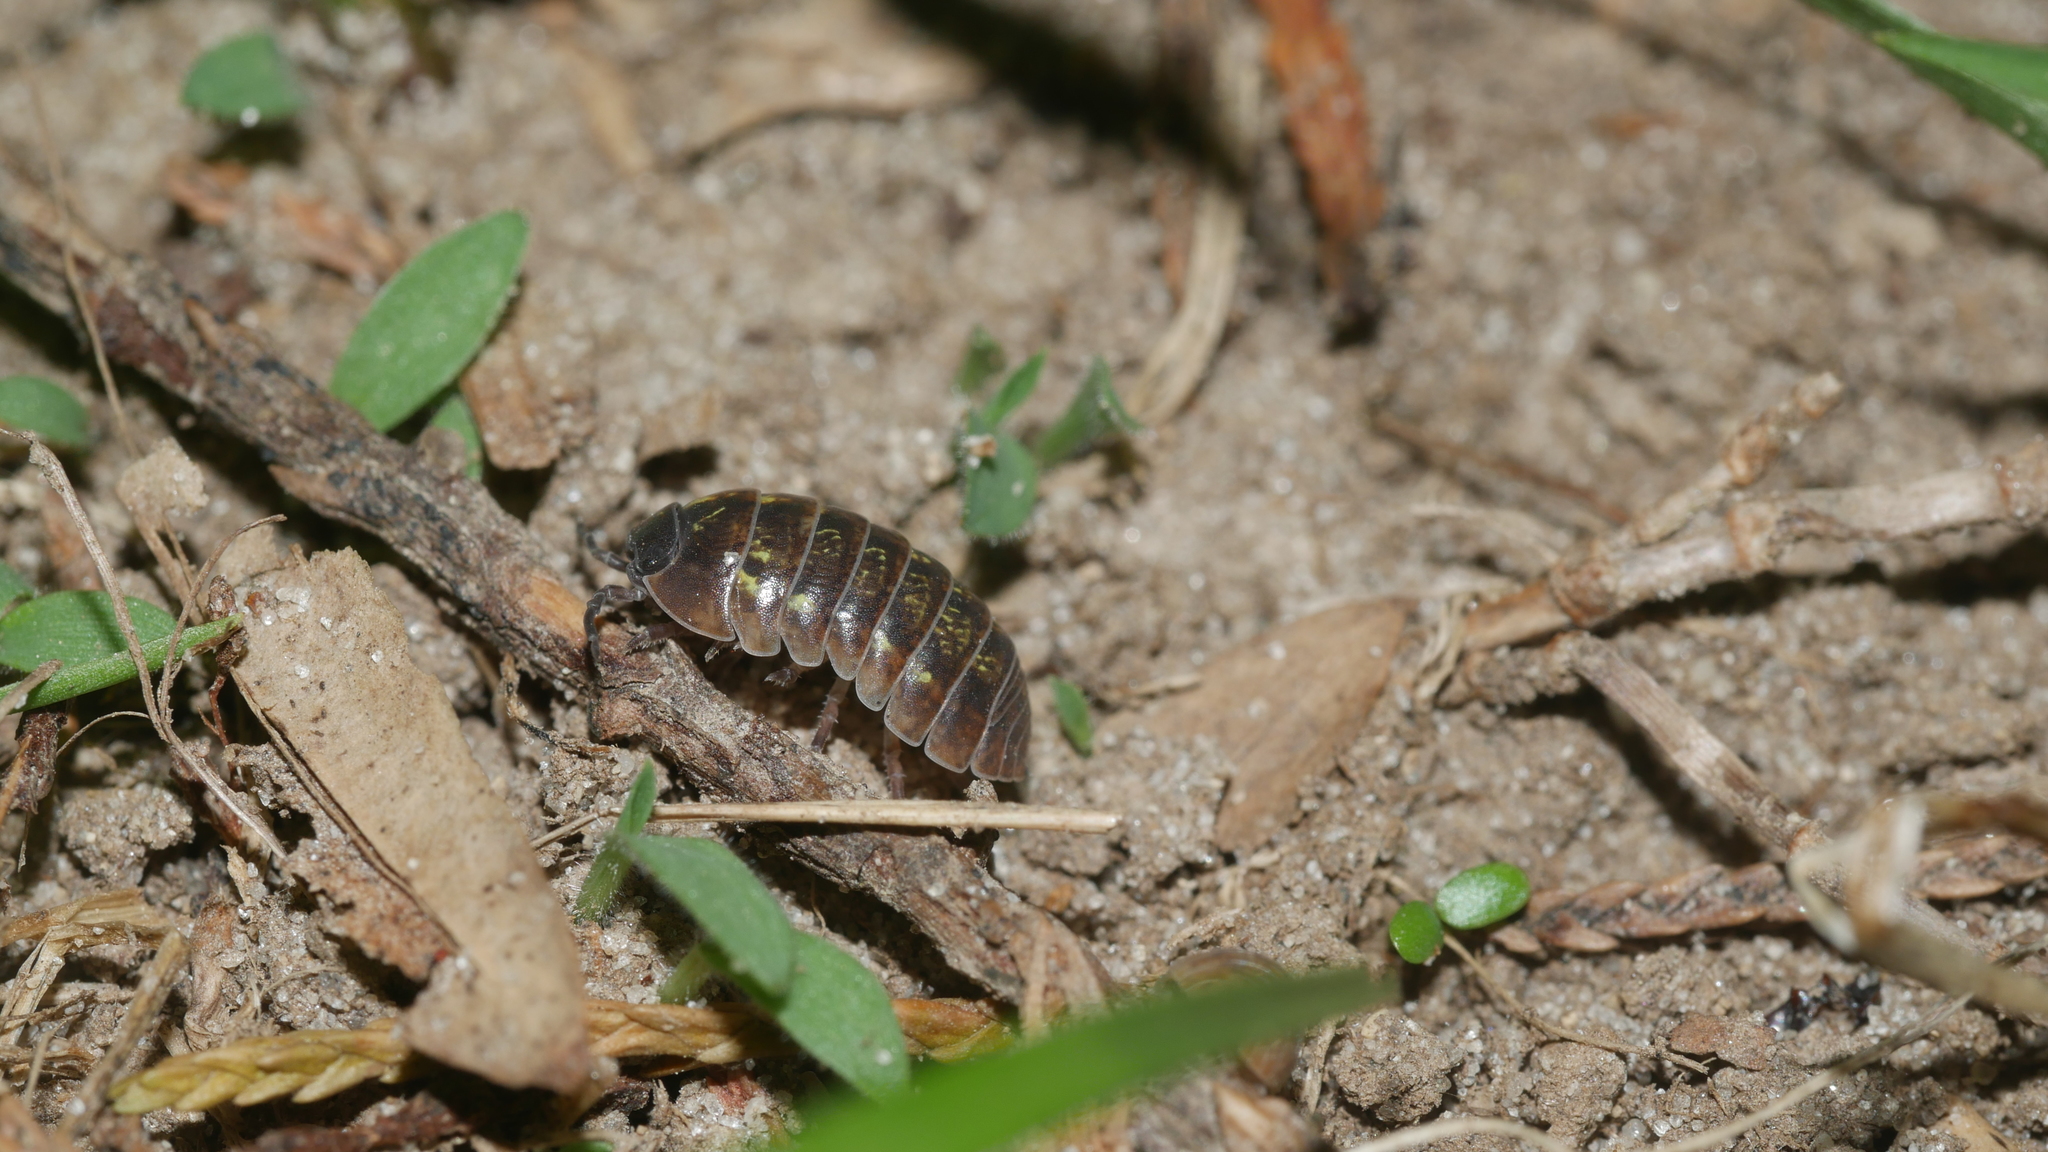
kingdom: Animalia
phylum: Arthropoda
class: Malacostraca
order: Isopoda
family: Armadillidiidae
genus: Armadillidium
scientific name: Armadillidium vulgare
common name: Common pill woodlouse
